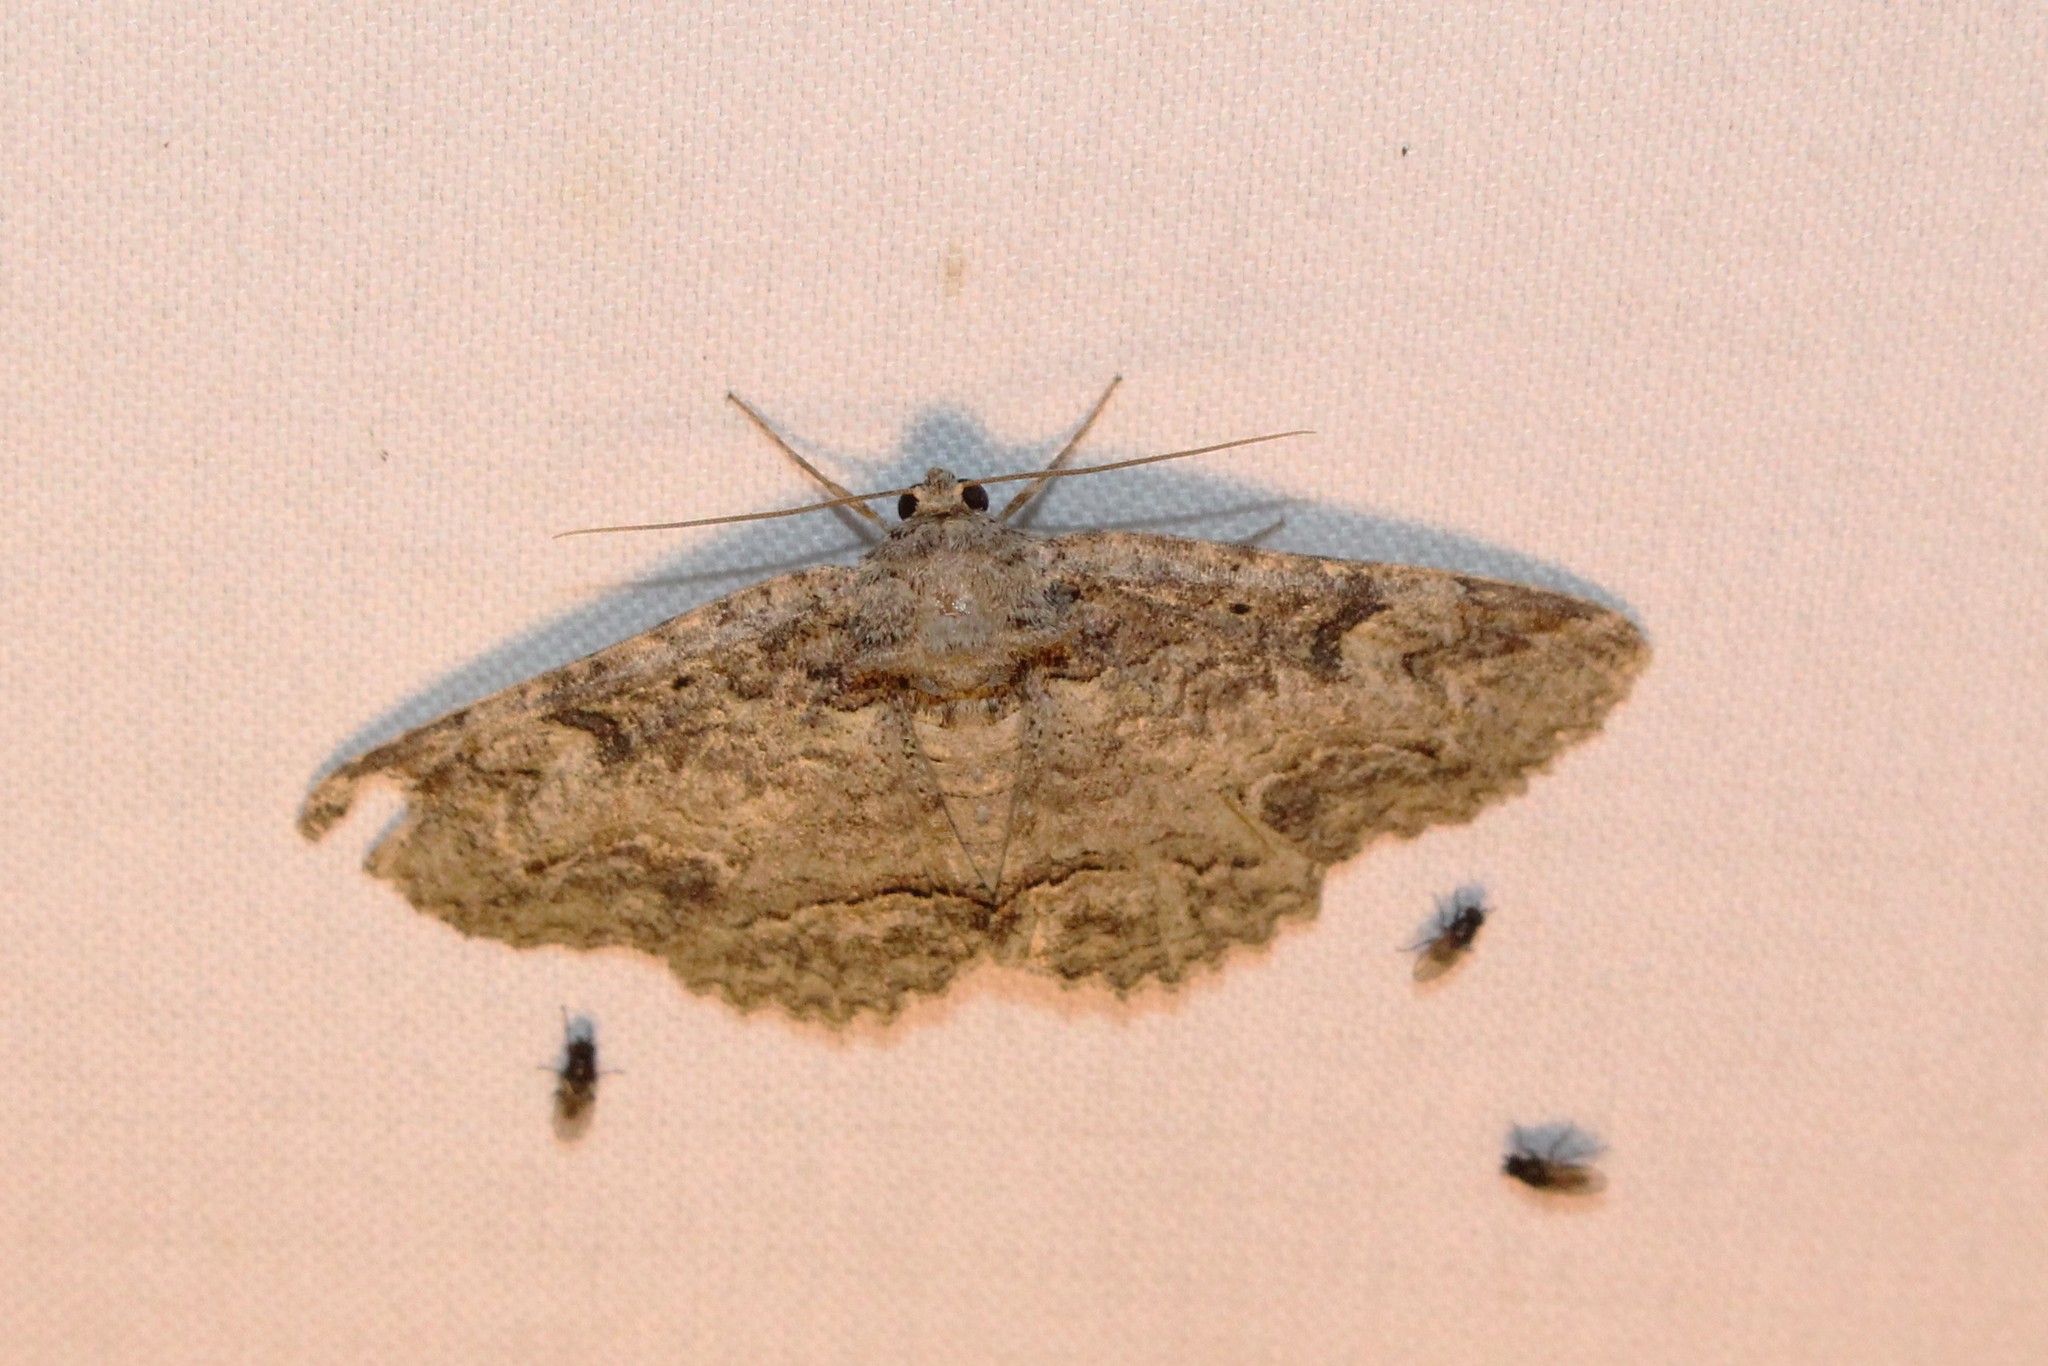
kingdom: Animalia
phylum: Arthropoda
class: Insecta
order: Lepidoptera
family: Erebidae
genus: Zale
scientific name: Zale galbanata
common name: Maple zale
